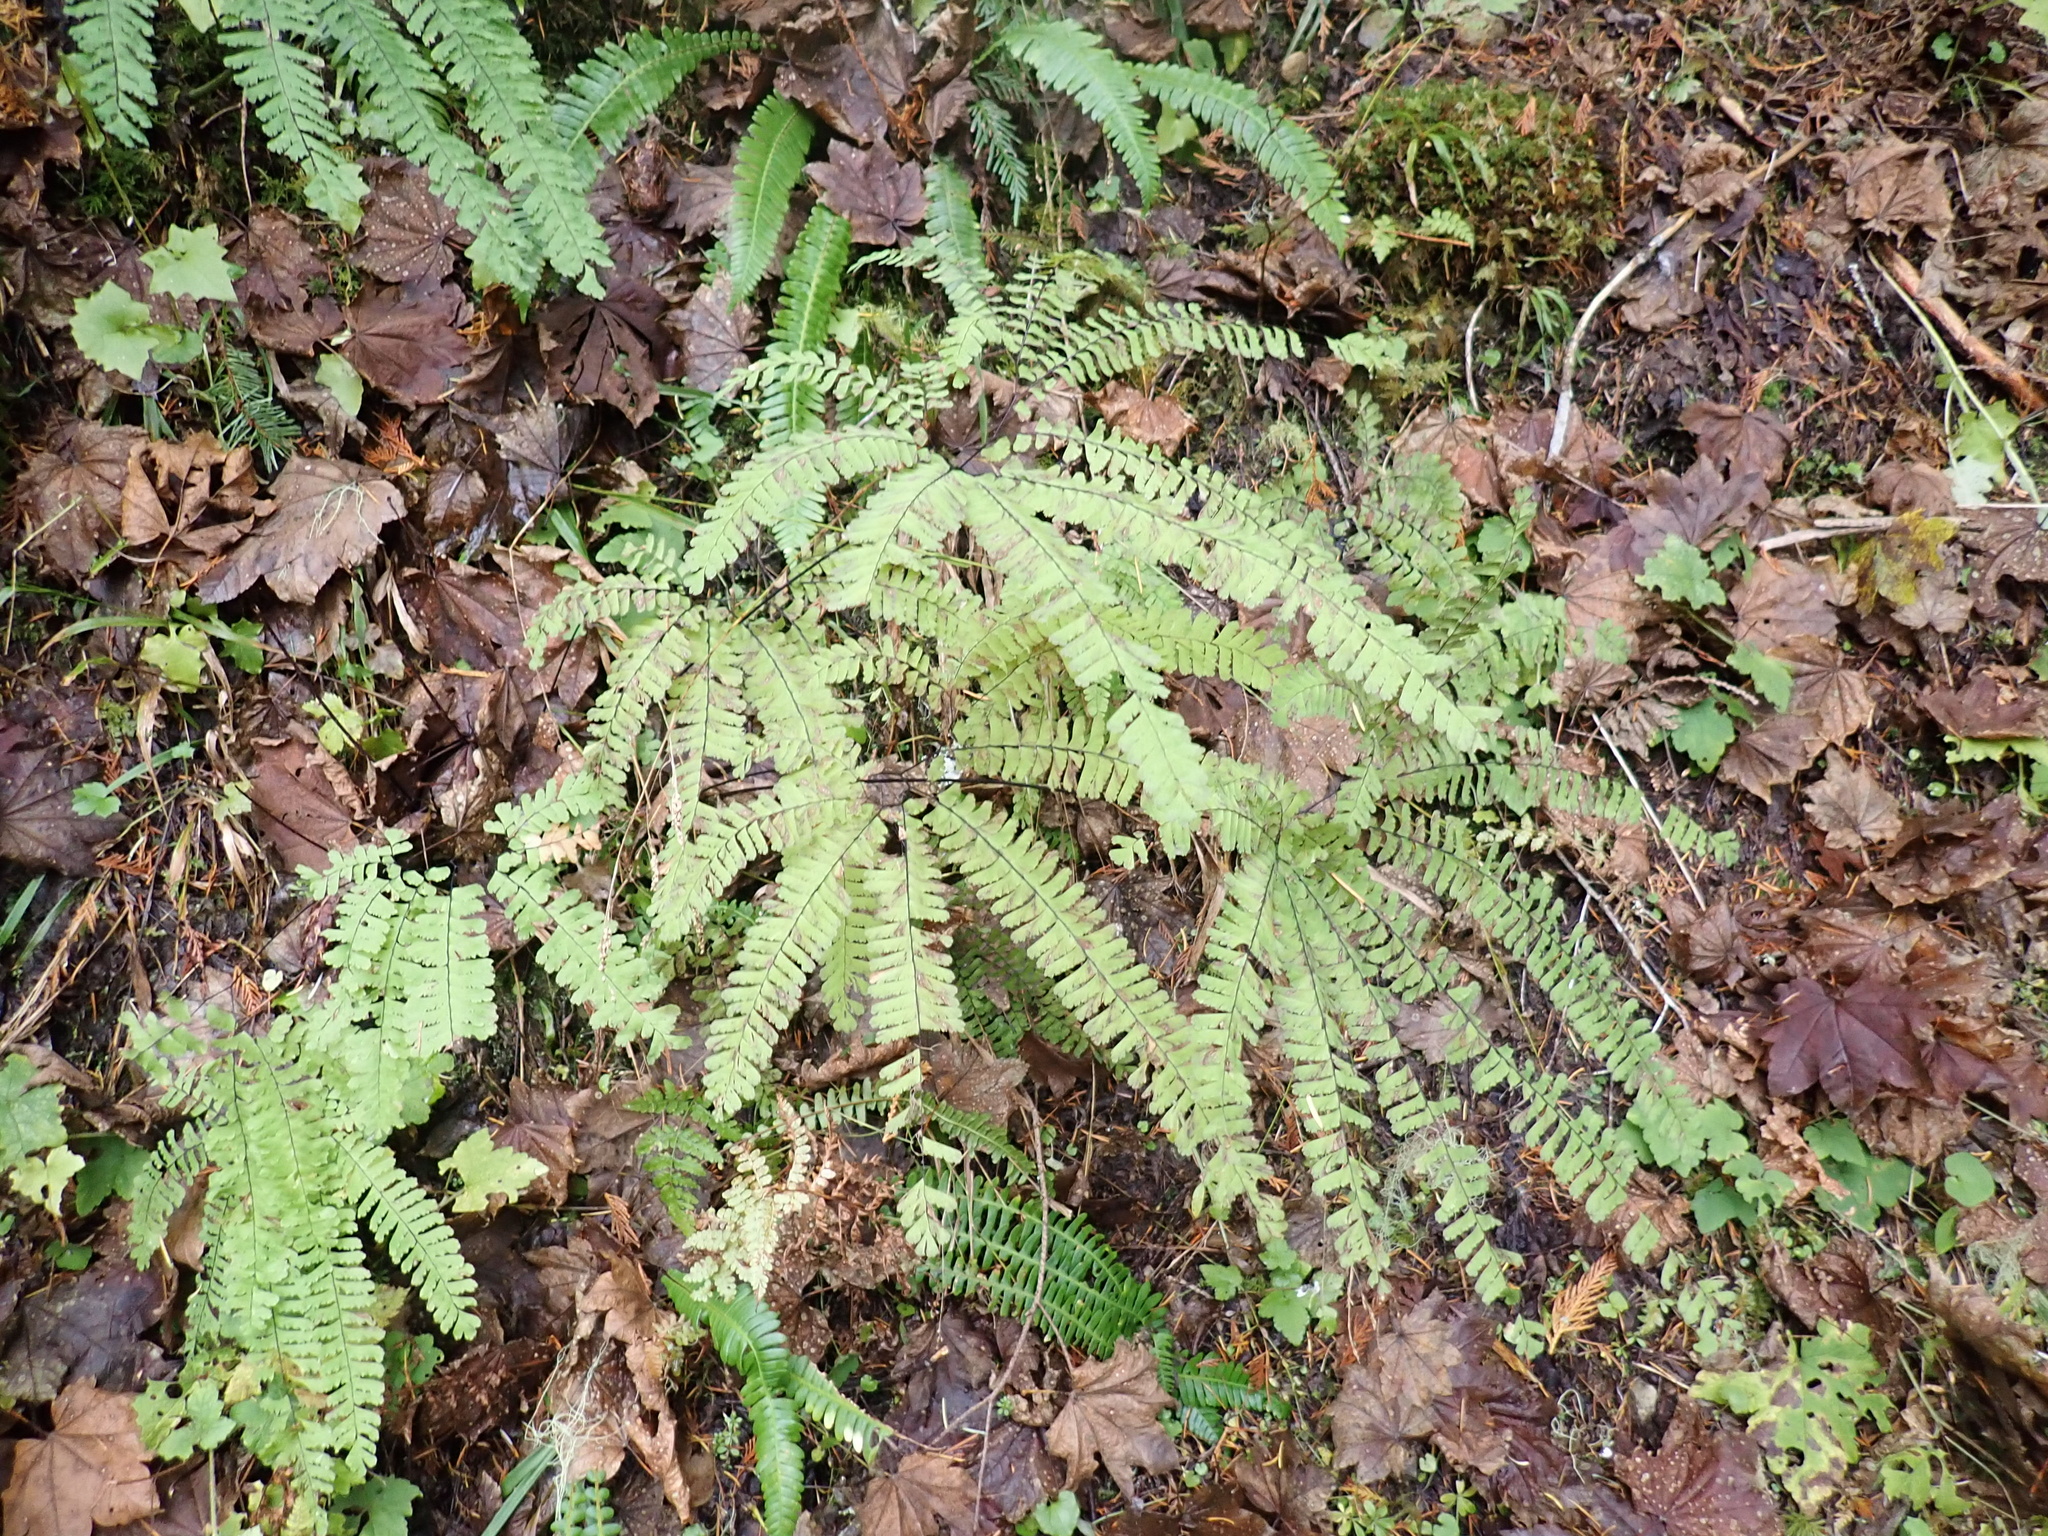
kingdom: Plantae
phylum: Tracheophyta
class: Polypodiopsida
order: Polypodiales
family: Pteridaceae
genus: Adiantum
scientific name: Adiantum aleuticum
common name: Aleutian maidenhair fern
